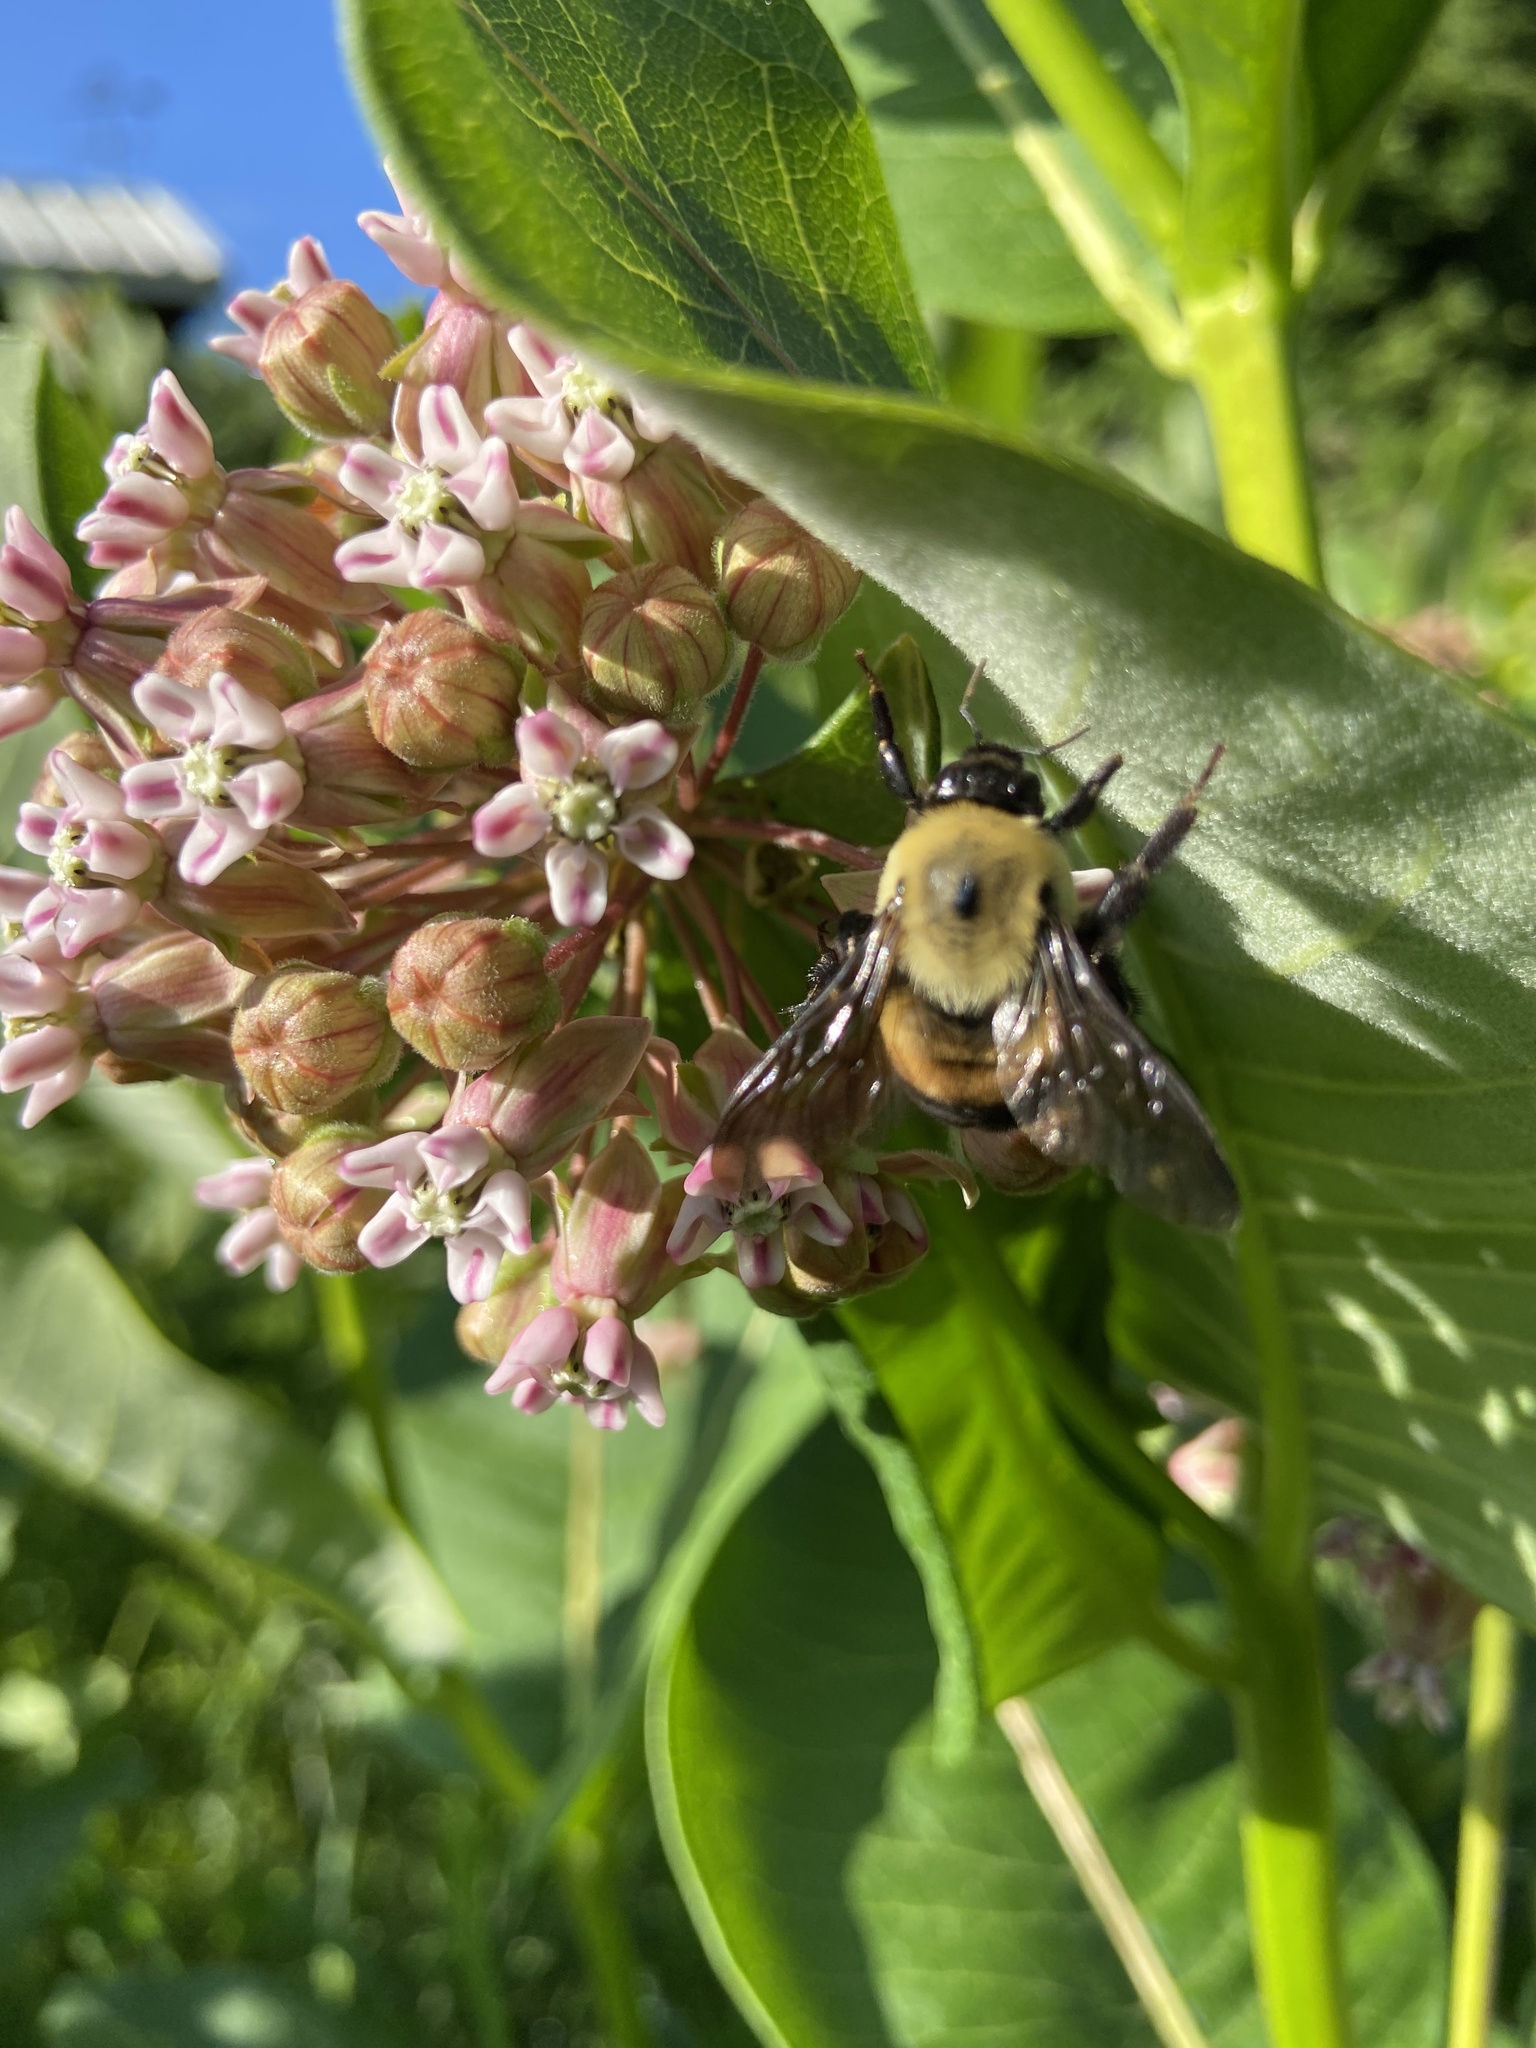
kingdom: Animalia
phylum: Arthropoda
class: Insecta
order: Hymenoptera
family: Apidae
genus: Bombus
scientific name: Bombus griseocollis
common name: Brown-belted bumble bee
